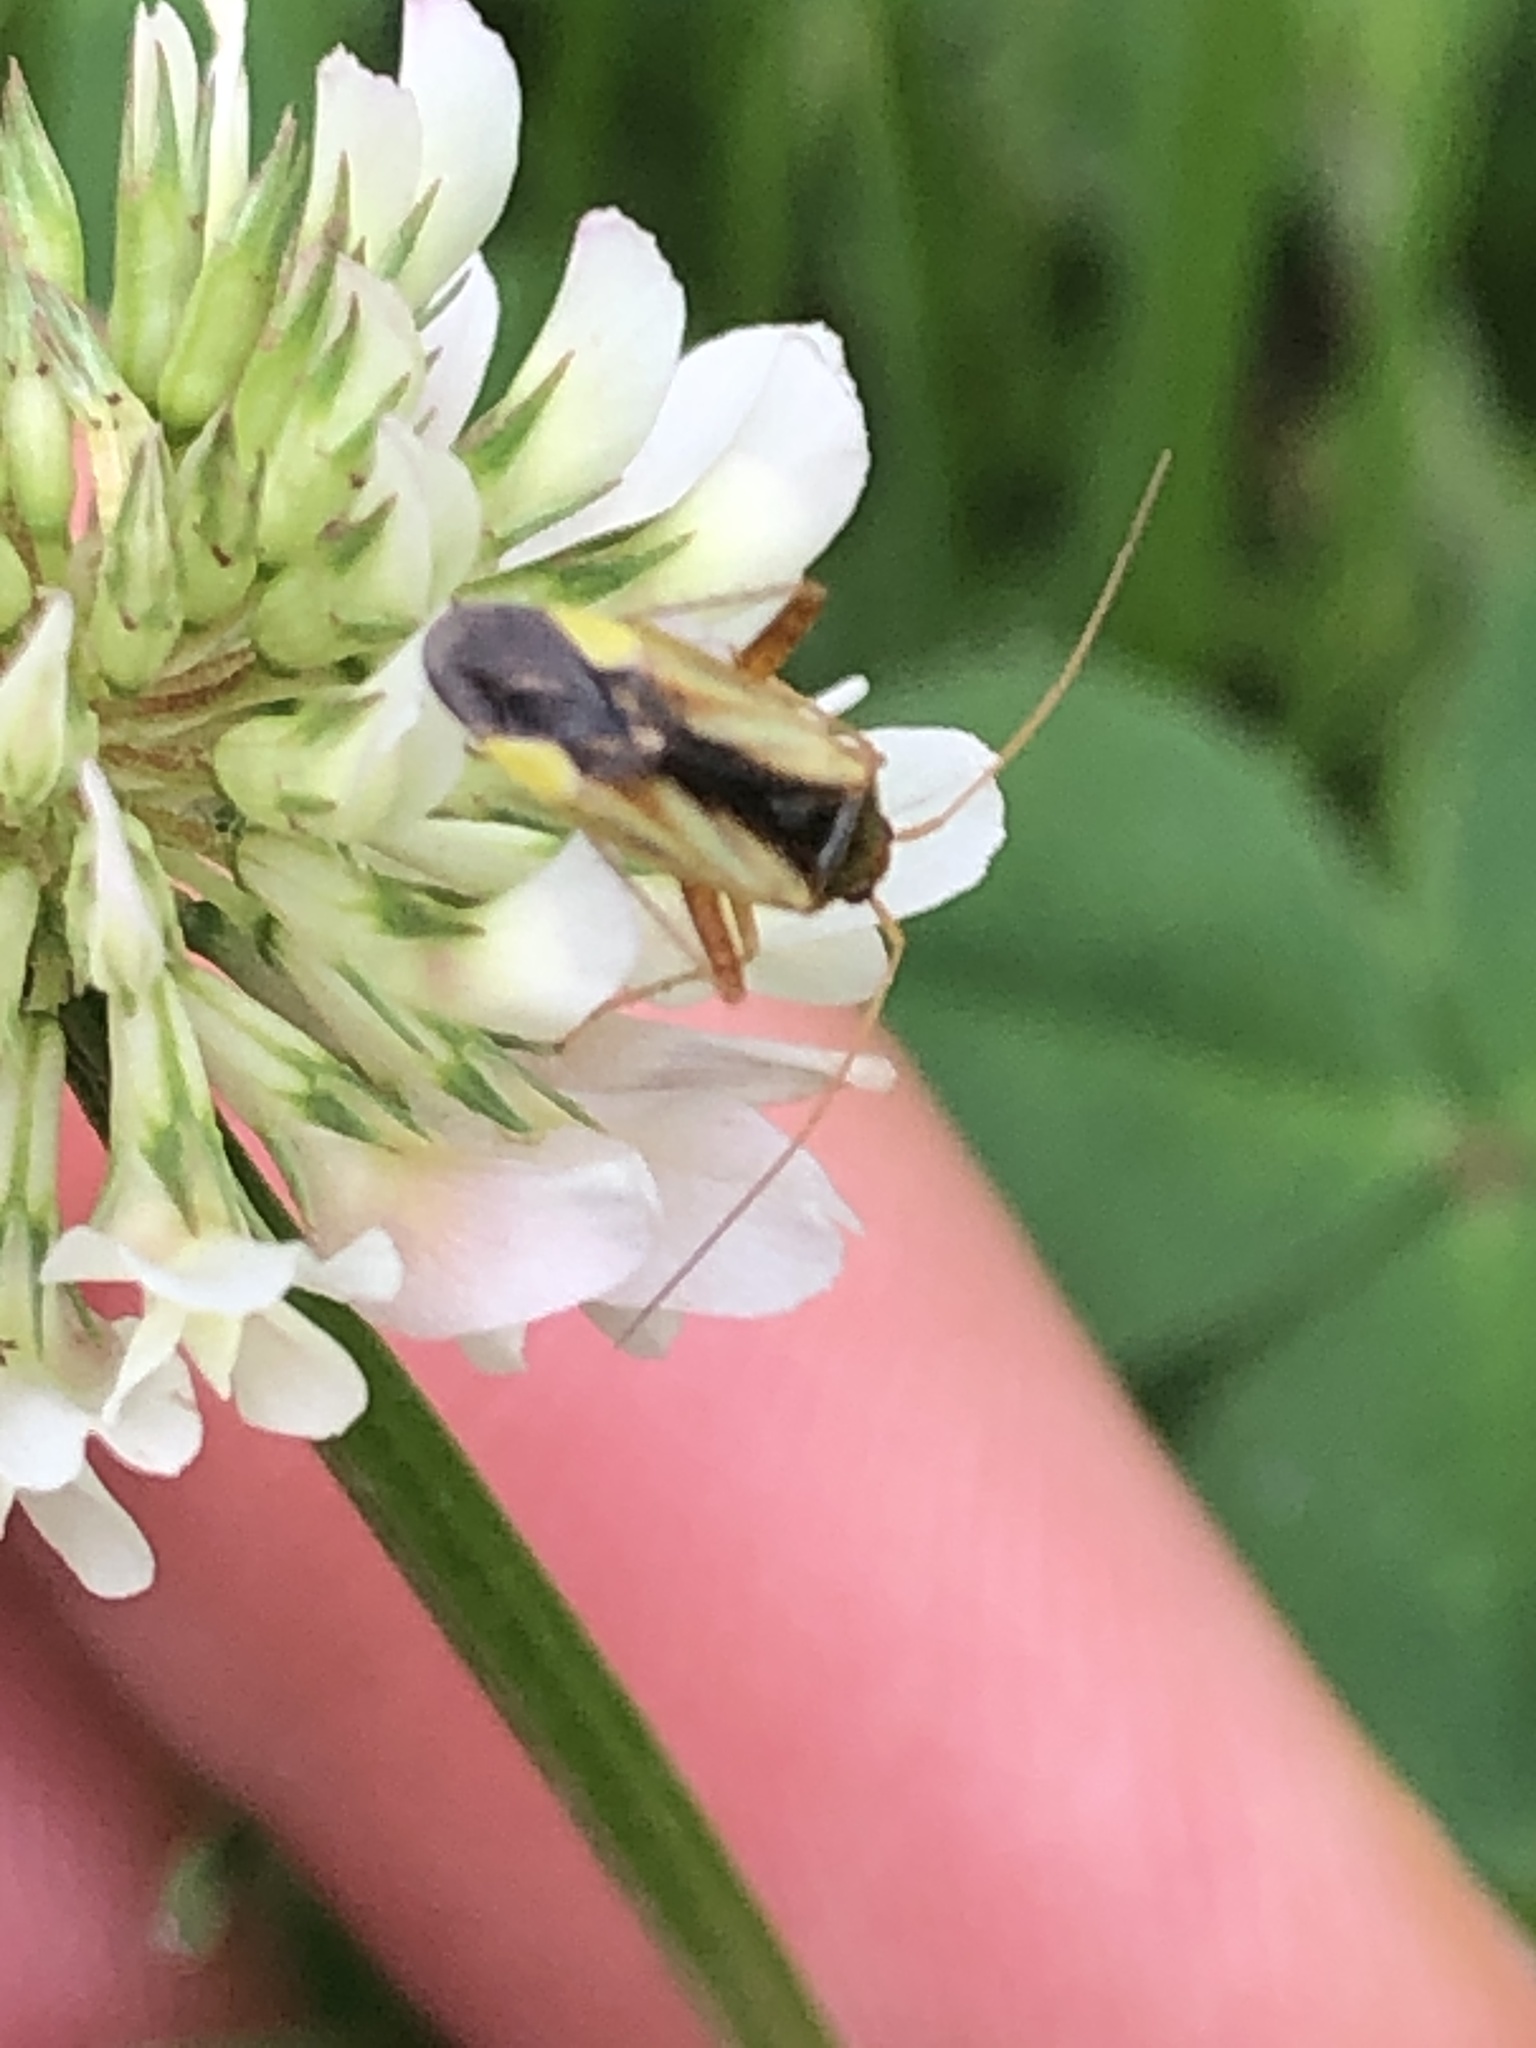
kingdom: Animalia
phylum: Arthropoda
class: Insecta
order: Hemiptera
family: Miridae
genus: Adelphocoris
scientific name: Adelphocoris suturalis
